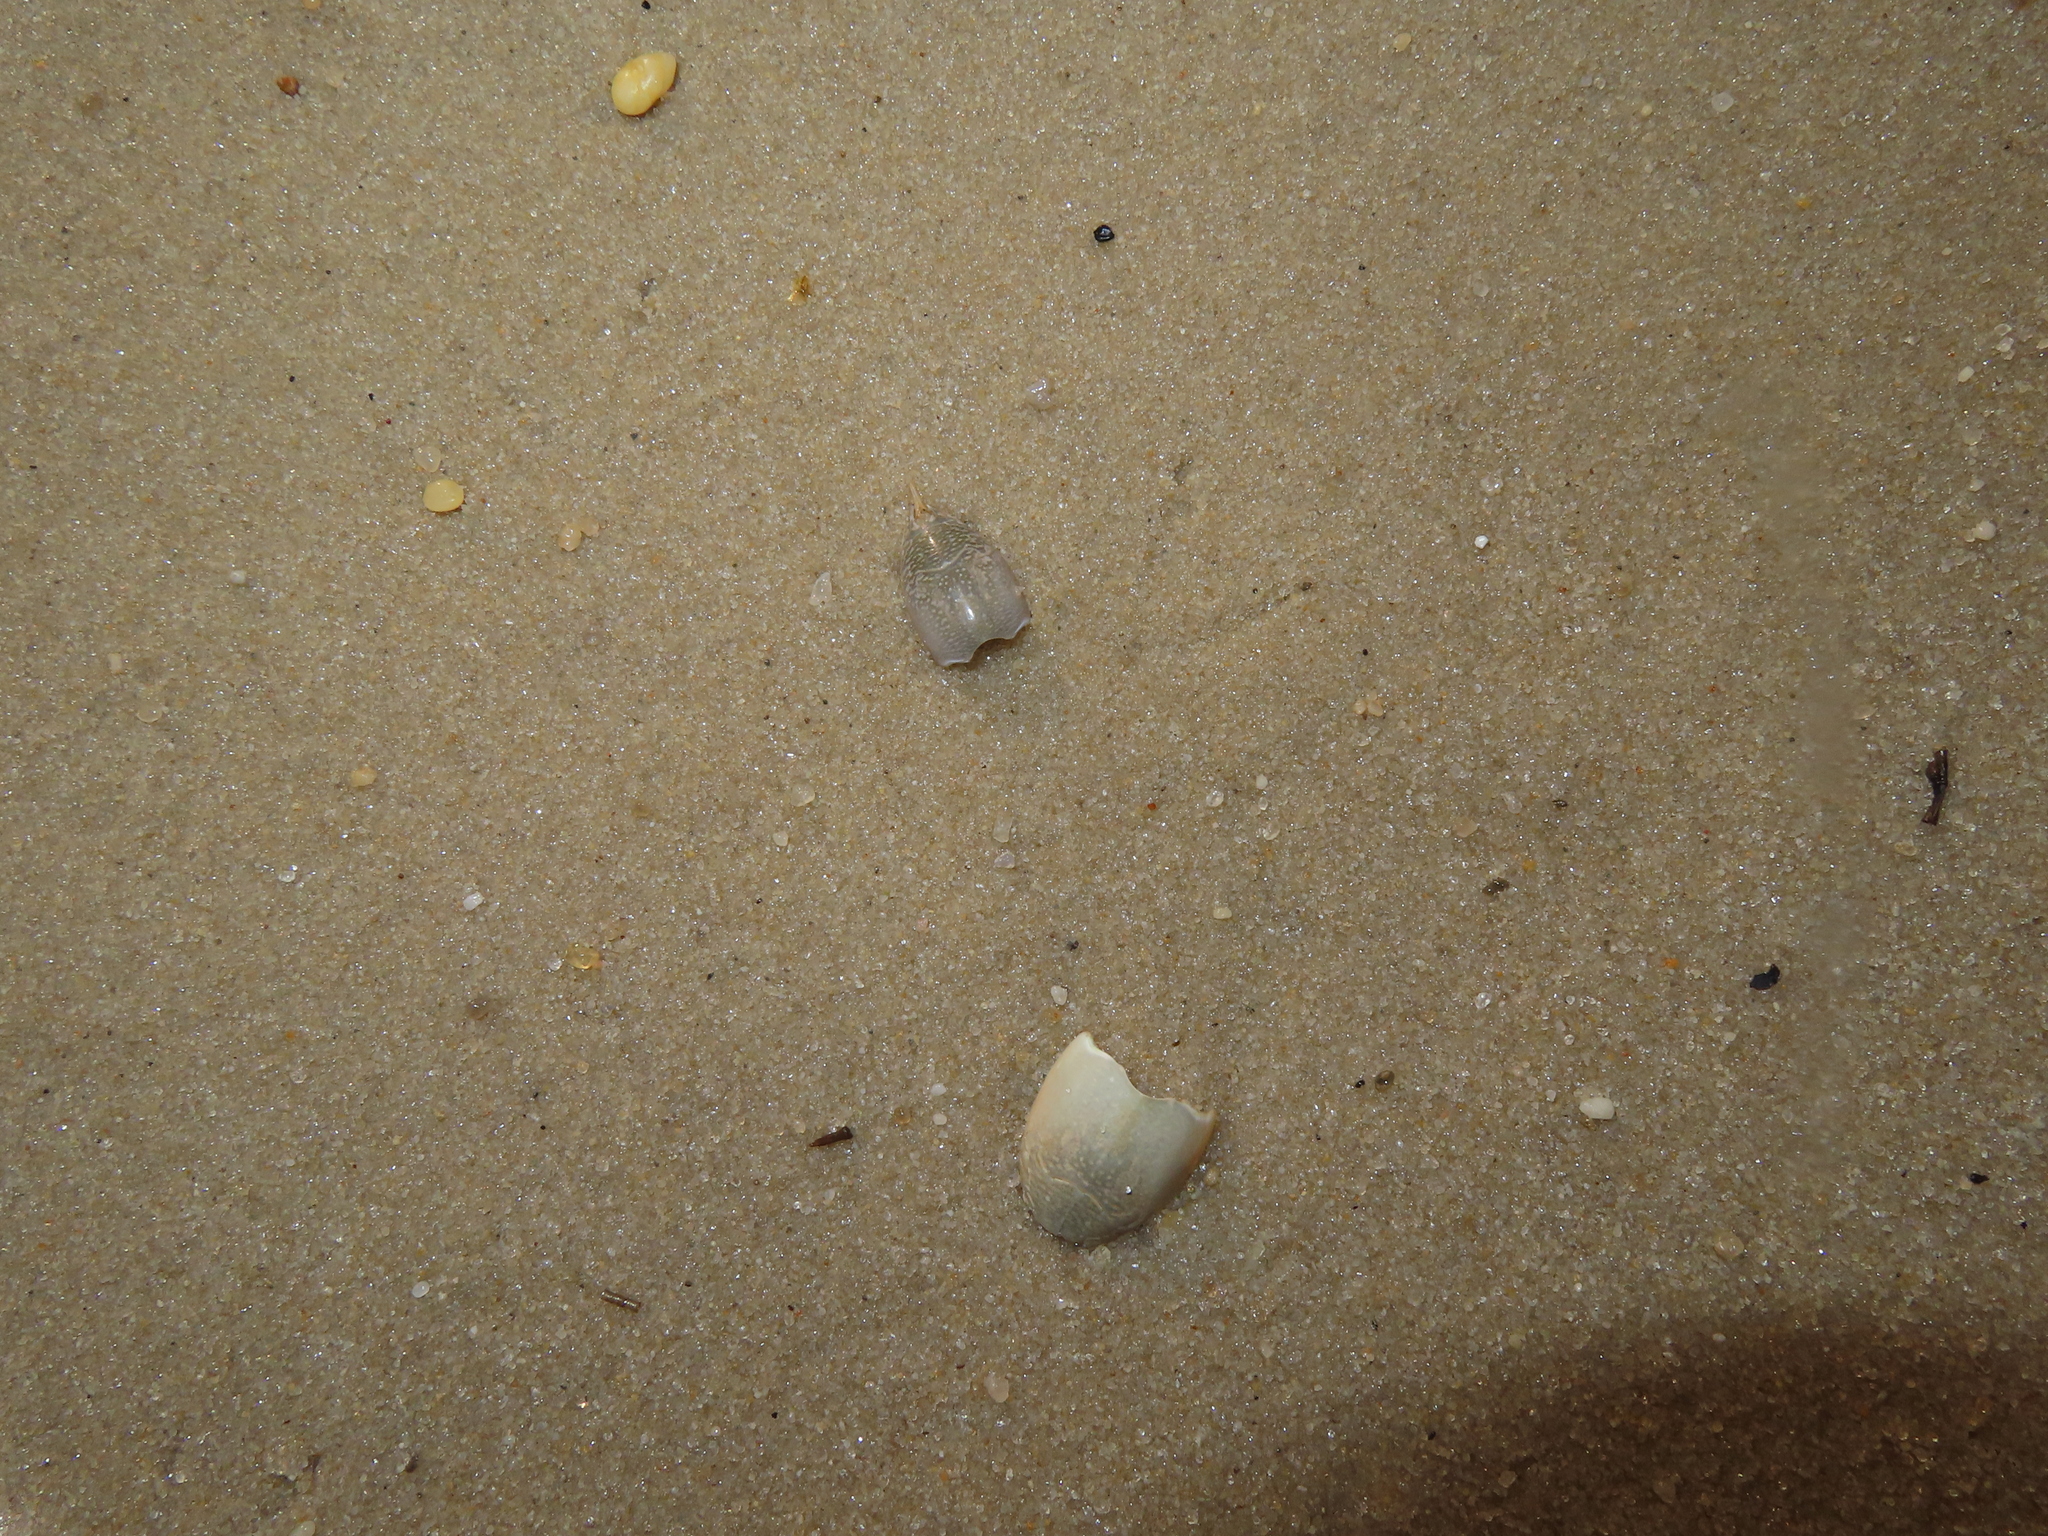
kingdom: Animalia
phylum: Arthropoda
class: Malacostraca
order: Decapoda
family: Hippidae
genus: Emerita
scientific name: Emerita talpoida
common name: Atlantic sand crab
